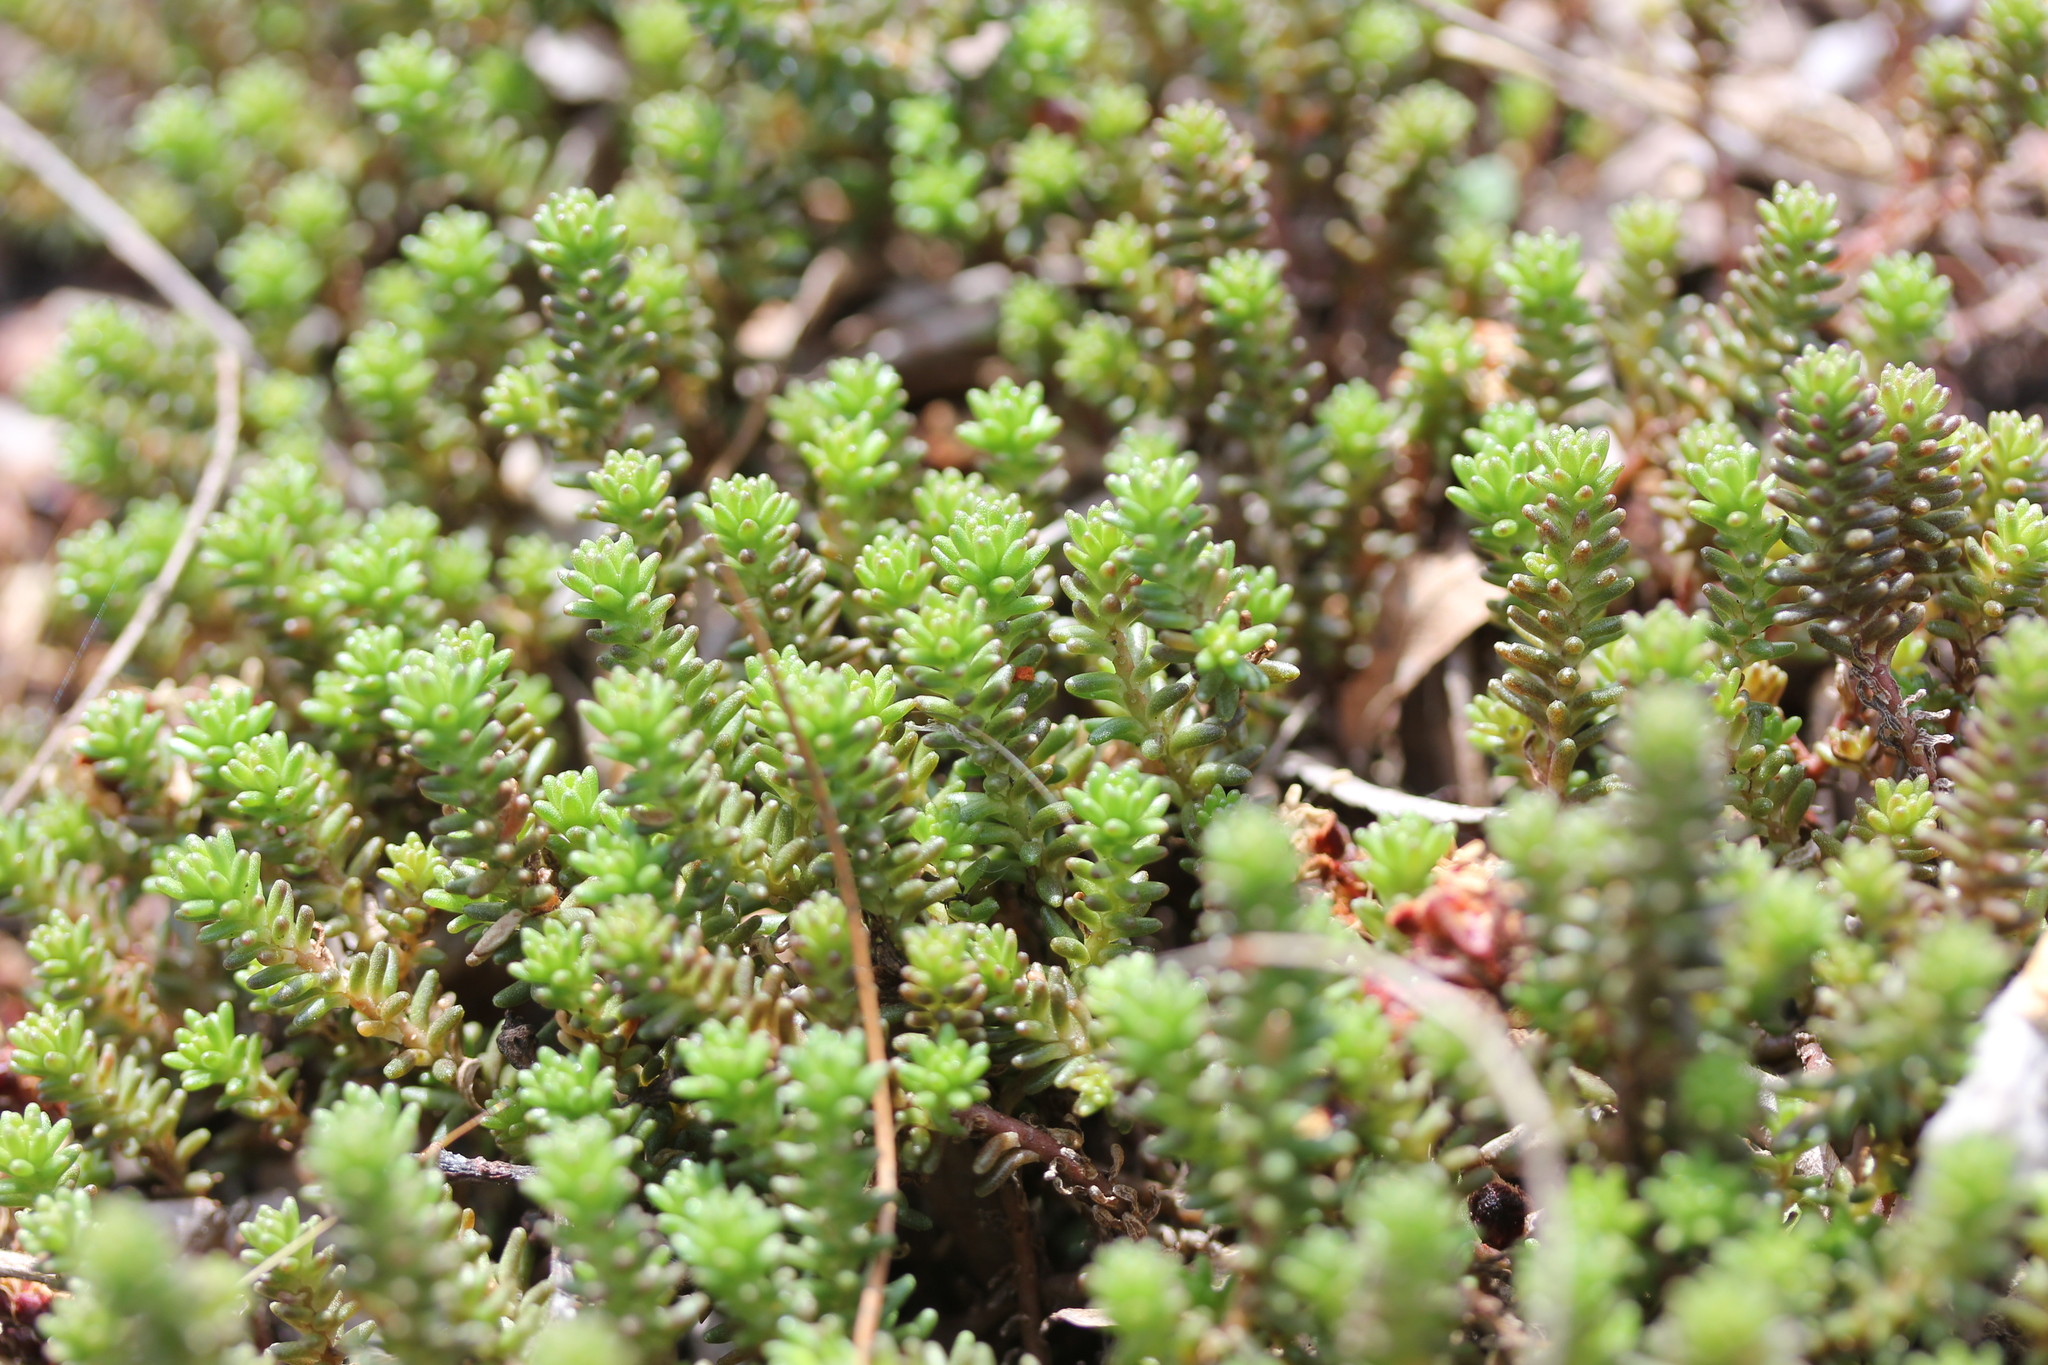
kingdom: Plantae
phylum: Tracheophyta
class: Magnoliopsida
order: Saxifragales
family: Crassulaceae
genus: Sedum
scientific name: Sedum sexangulare
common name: Tasteless stonecrop
